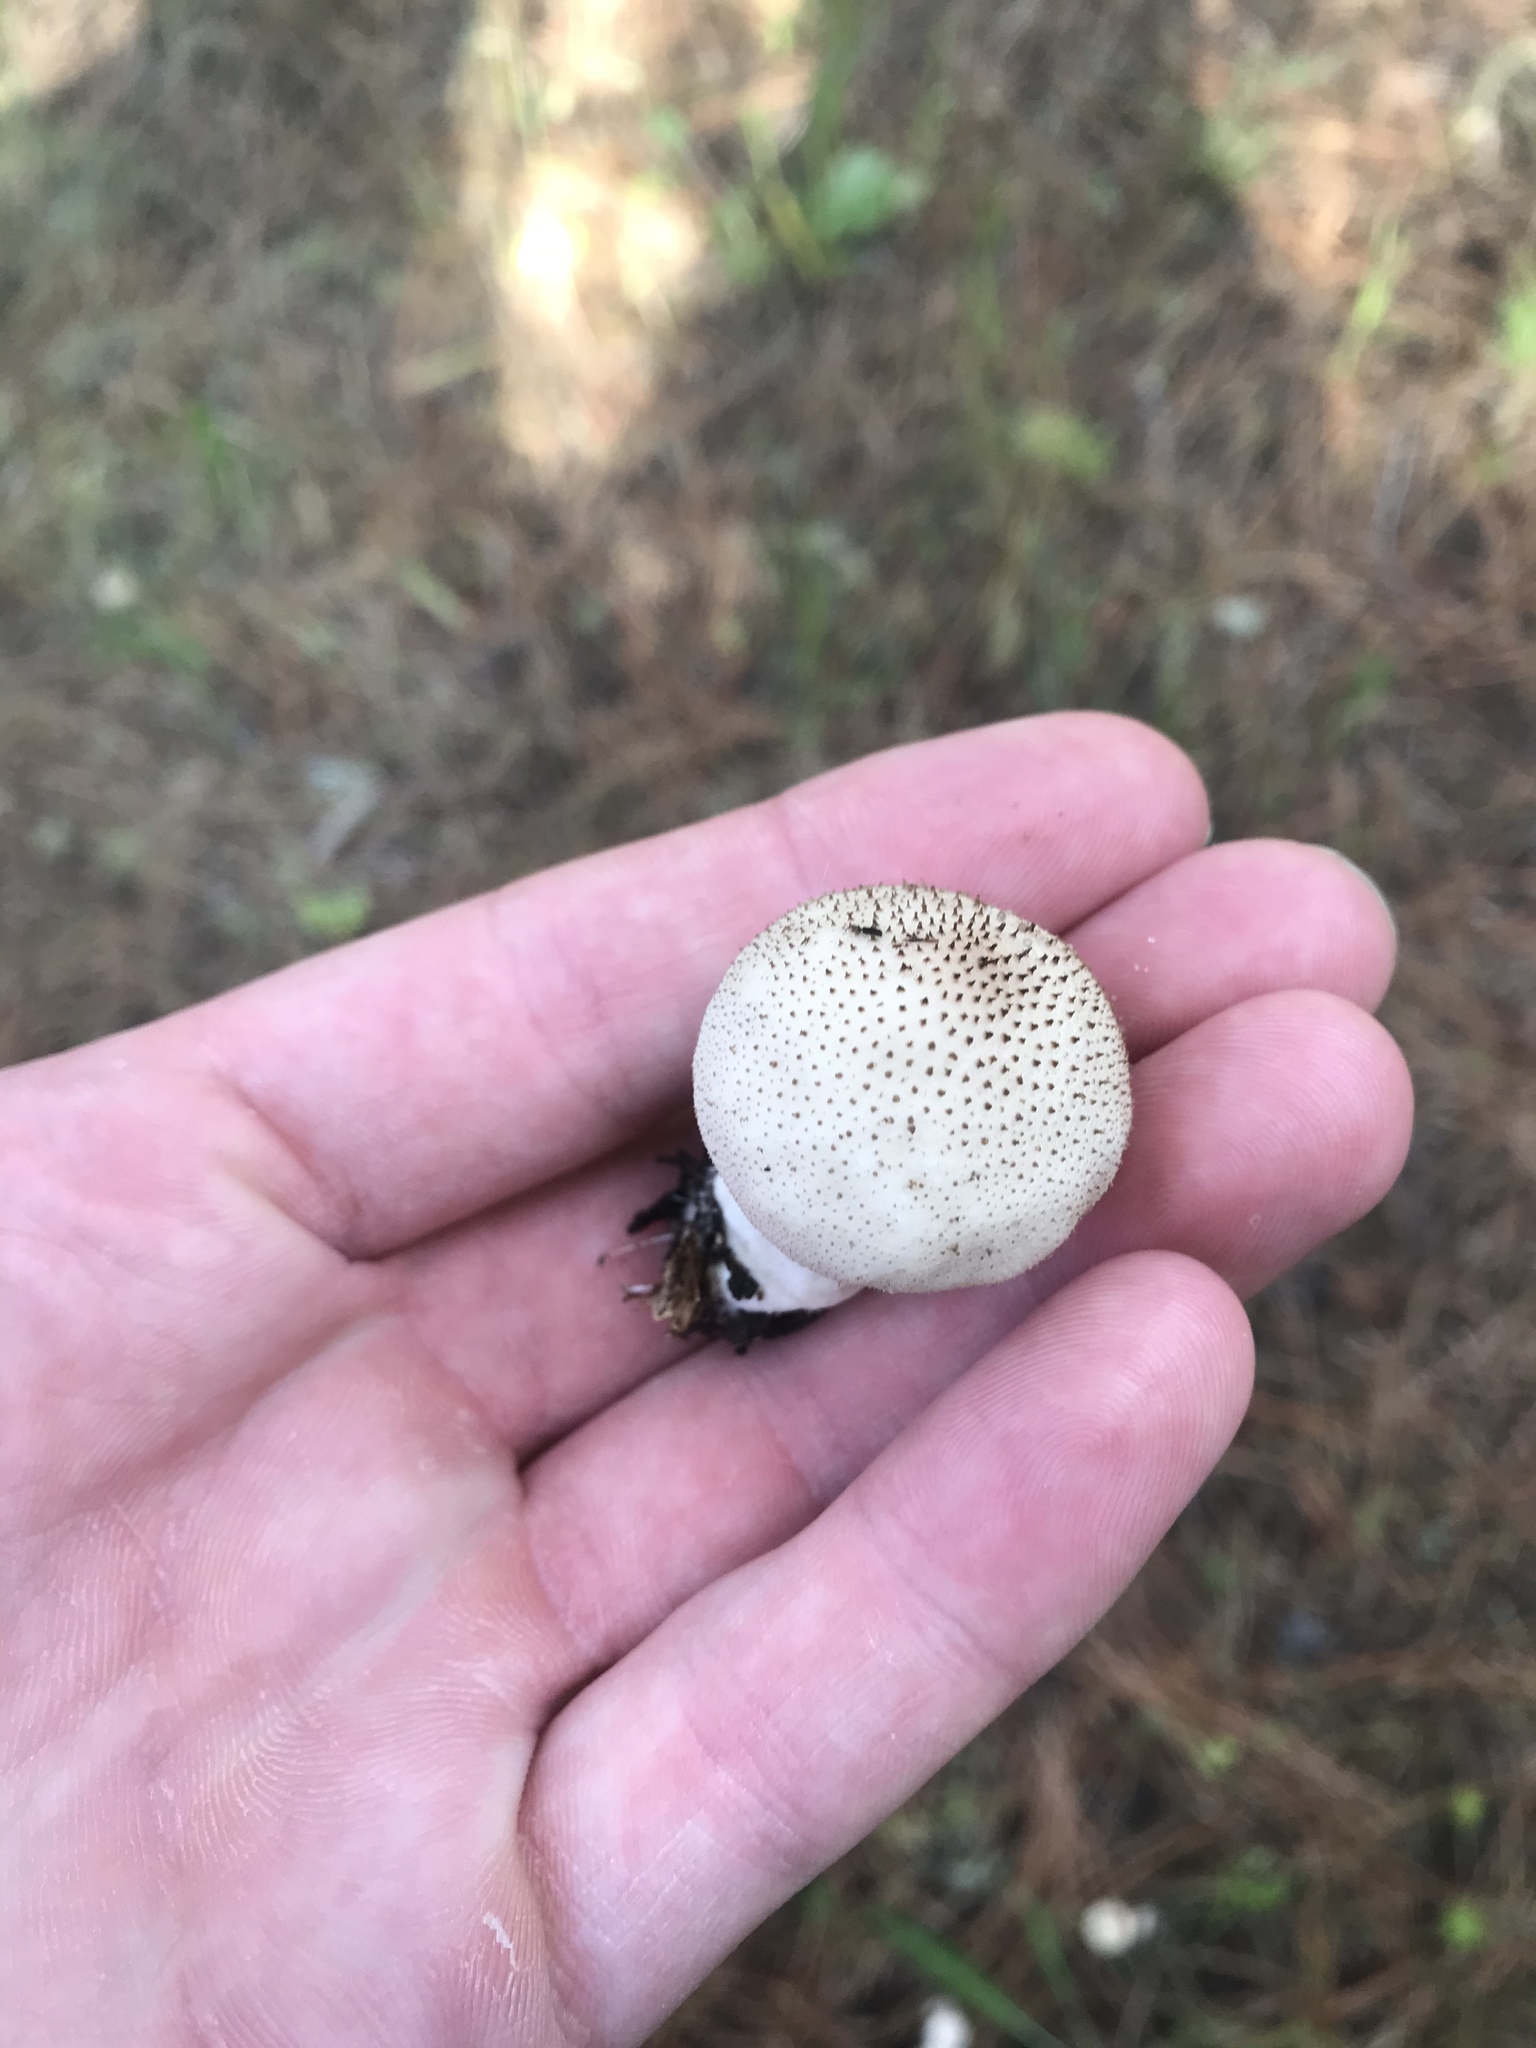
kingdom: Fungi
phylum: Basidiomycota
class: Agaricomycetes
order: Agaricales
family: Lycoperdaceae
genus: Lycoperdon
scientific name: Lycoperdon perlatum
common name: Common puffball
